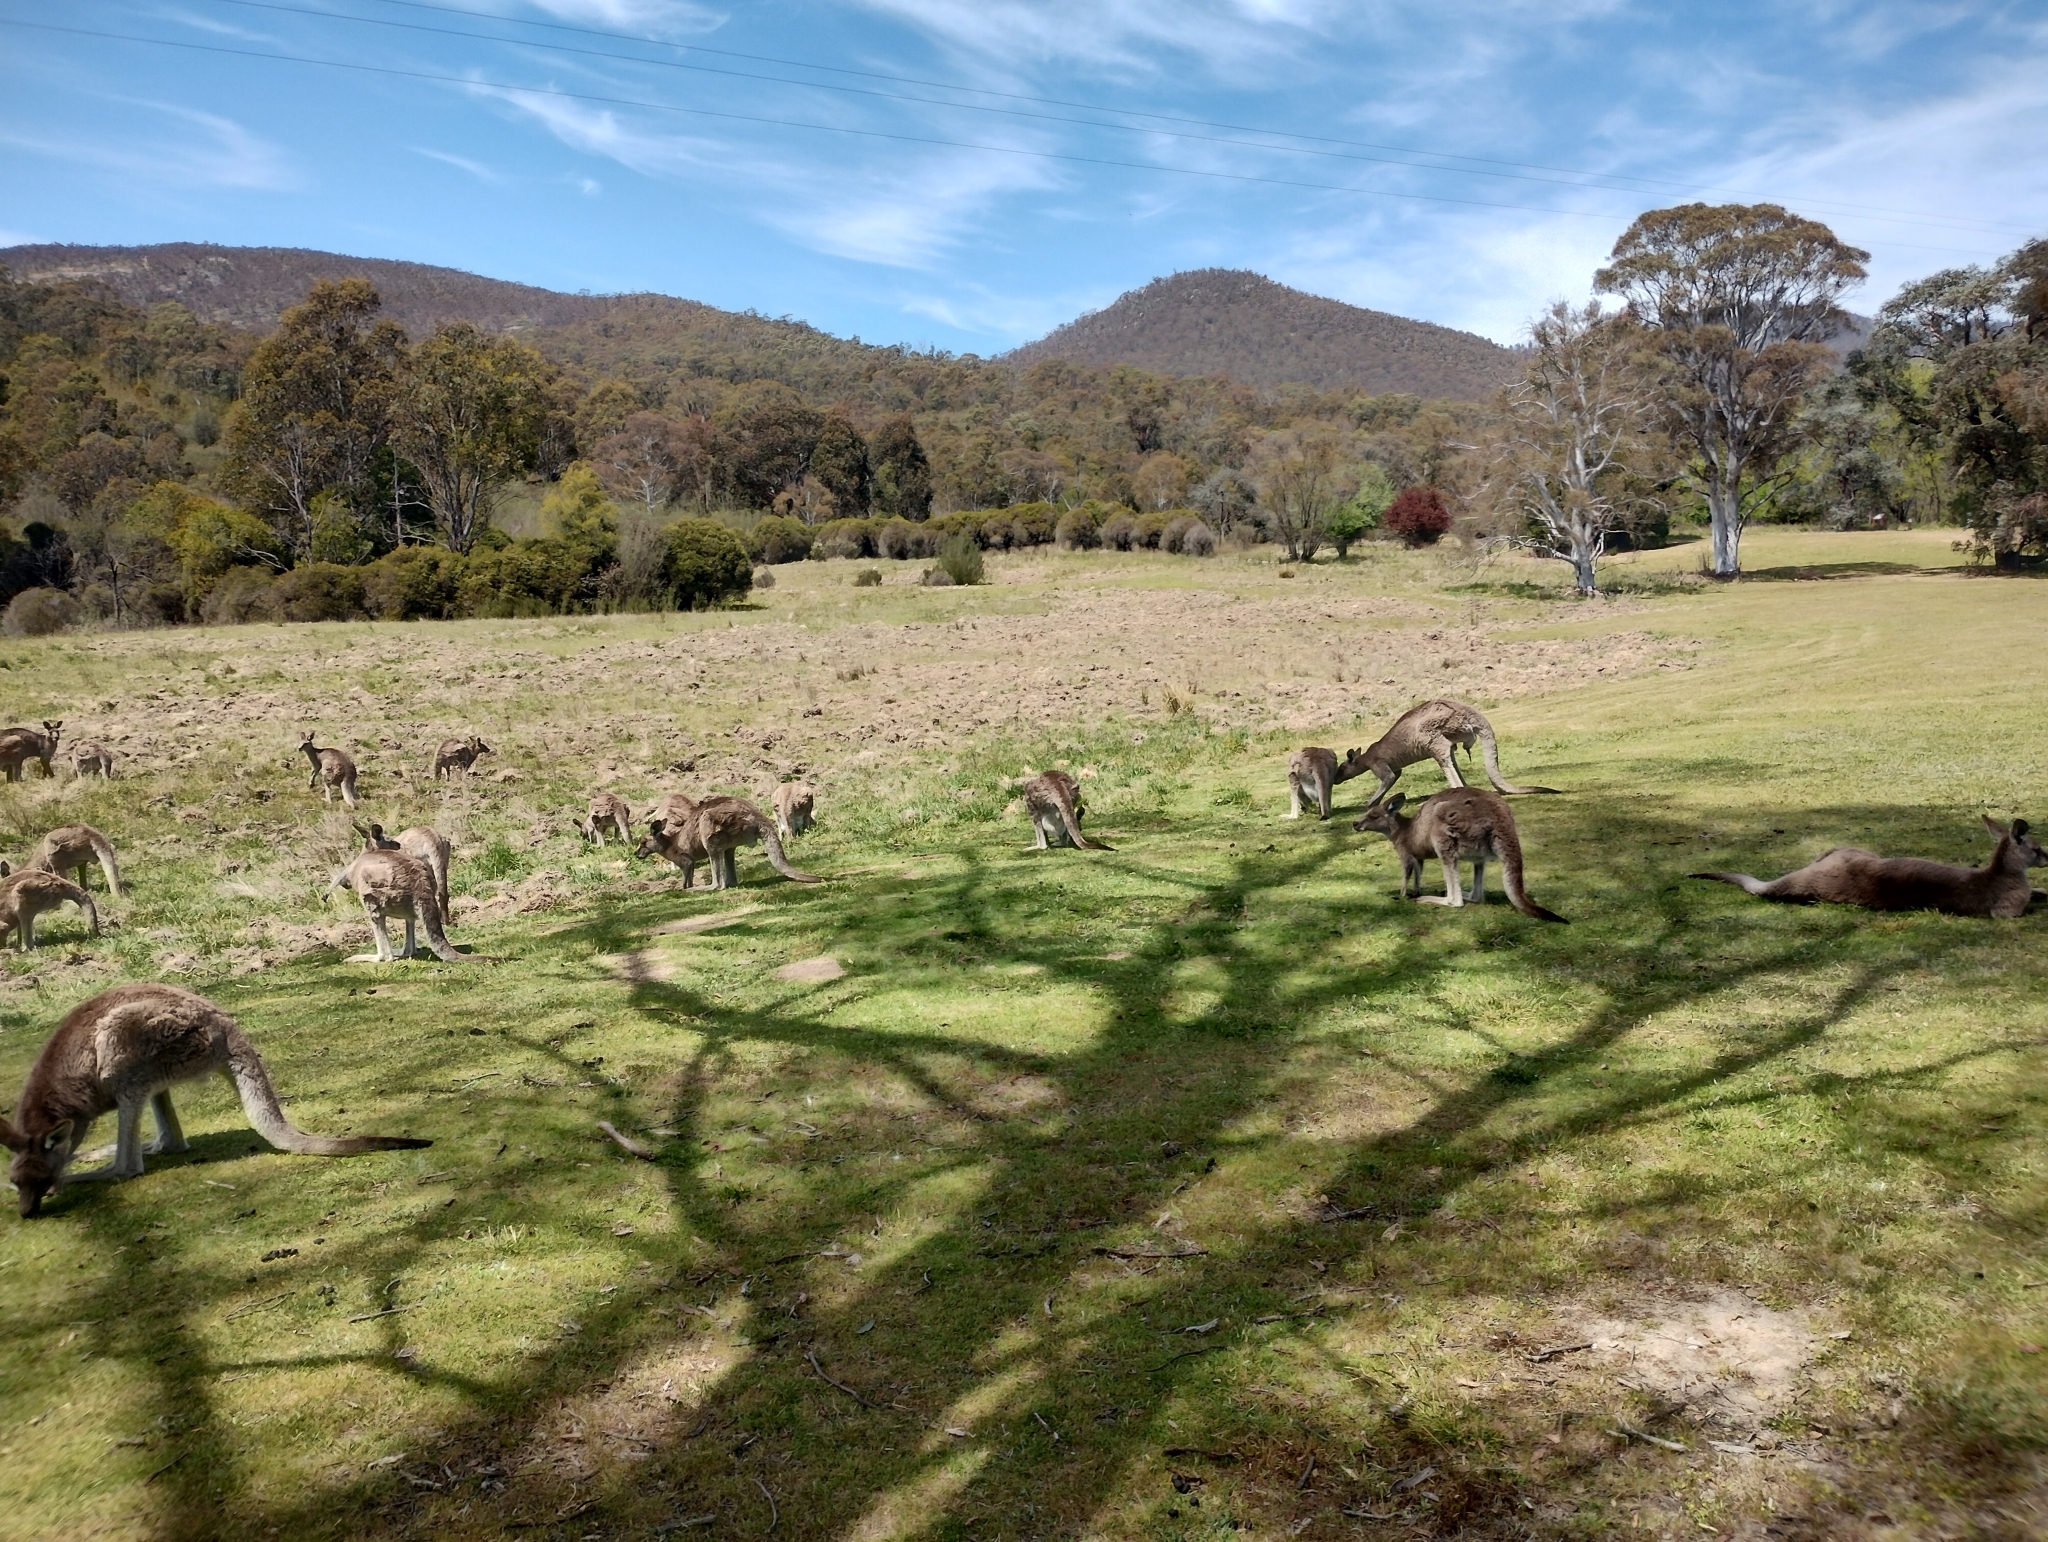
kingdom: Animalia
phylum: Chordata
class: Mammalia
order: Diprotodontia
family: Macropodidae
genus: Macropus
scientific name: Macropus giganteus
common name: Eastern grey kangaroo
